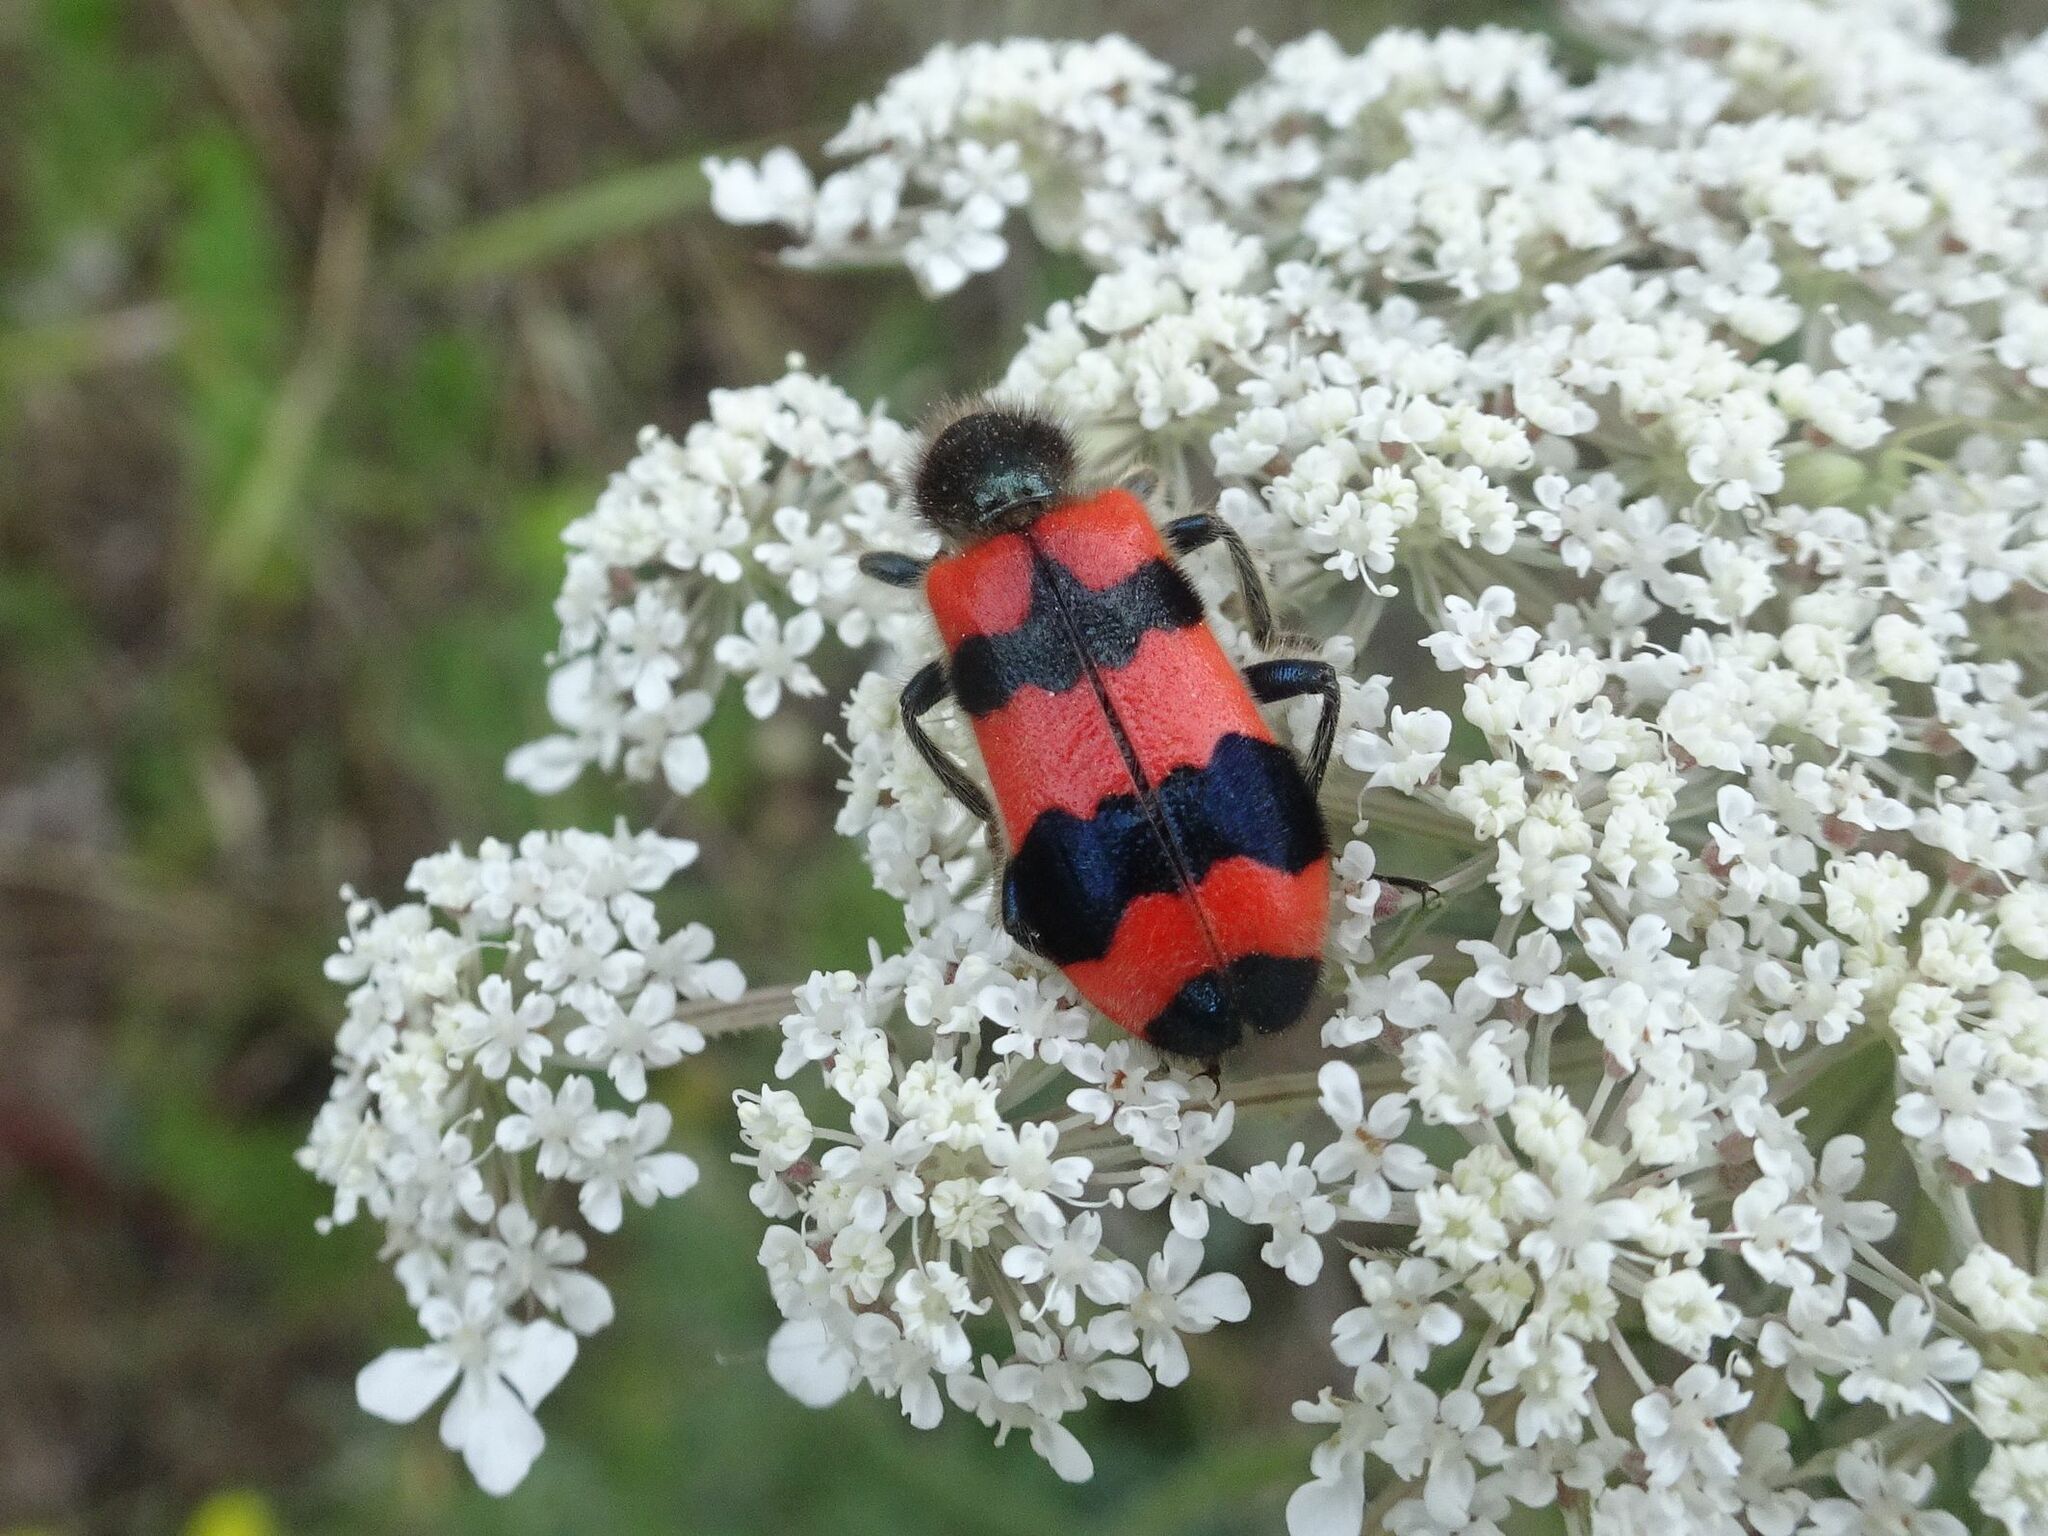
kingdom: Animalia
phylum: Arthropoda
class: Insecta
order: Coleoptera
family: Cleridae
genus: Trichodes
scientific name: Trichodes apiarius
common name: Bee-eating beetle
